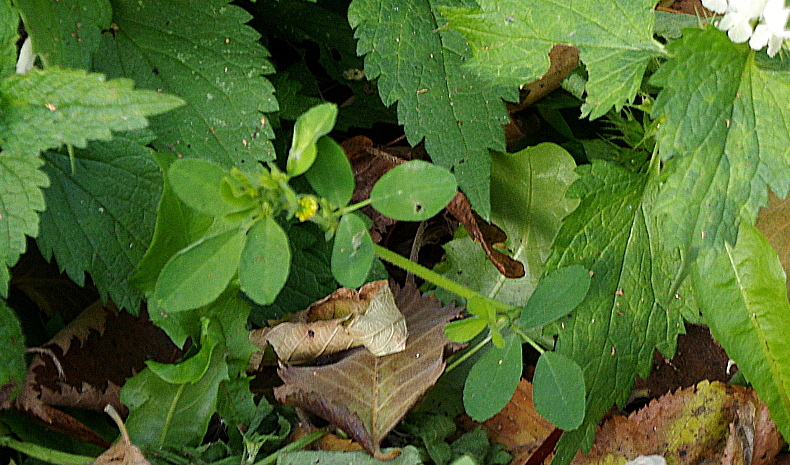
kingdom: Plantae
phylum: Tracheophyta
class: Magnoliopsida
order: Fabales
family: Fabaceae
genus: Medicago
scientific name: Medicago lupulina
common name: Black medick
